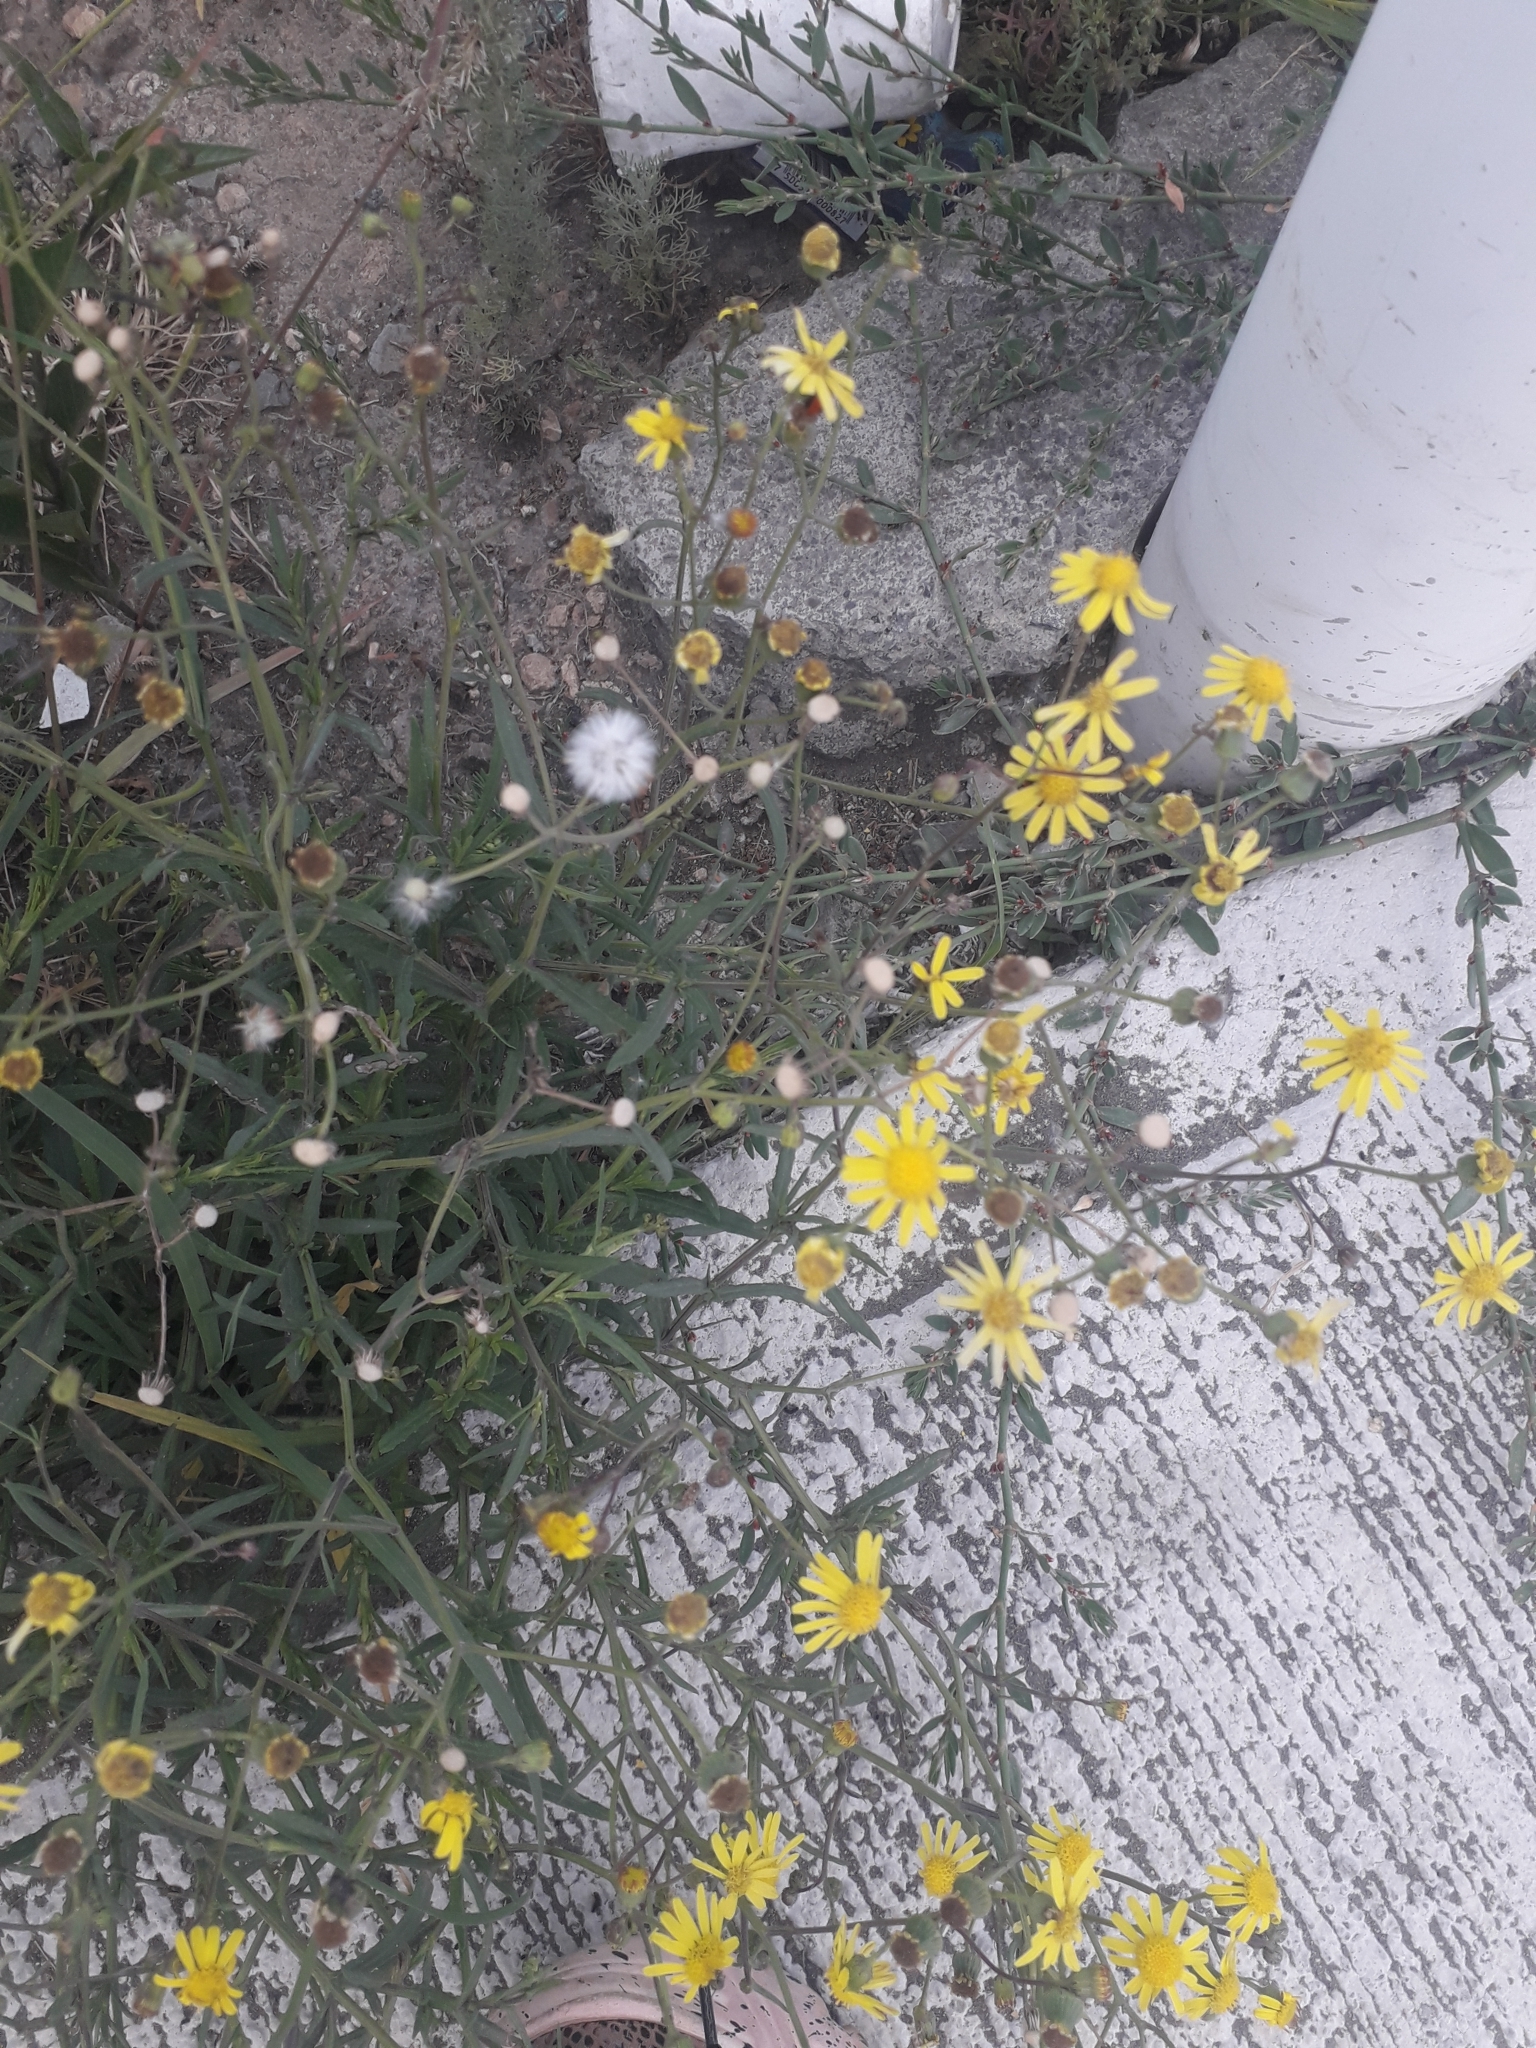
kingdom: Plantae
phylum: Tracheophyta
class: Magnoliopsida
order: Asterales
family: Asteraceae
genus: Senecio
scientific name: Senecio inaequidens
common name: Narrow-leaved ragwort
